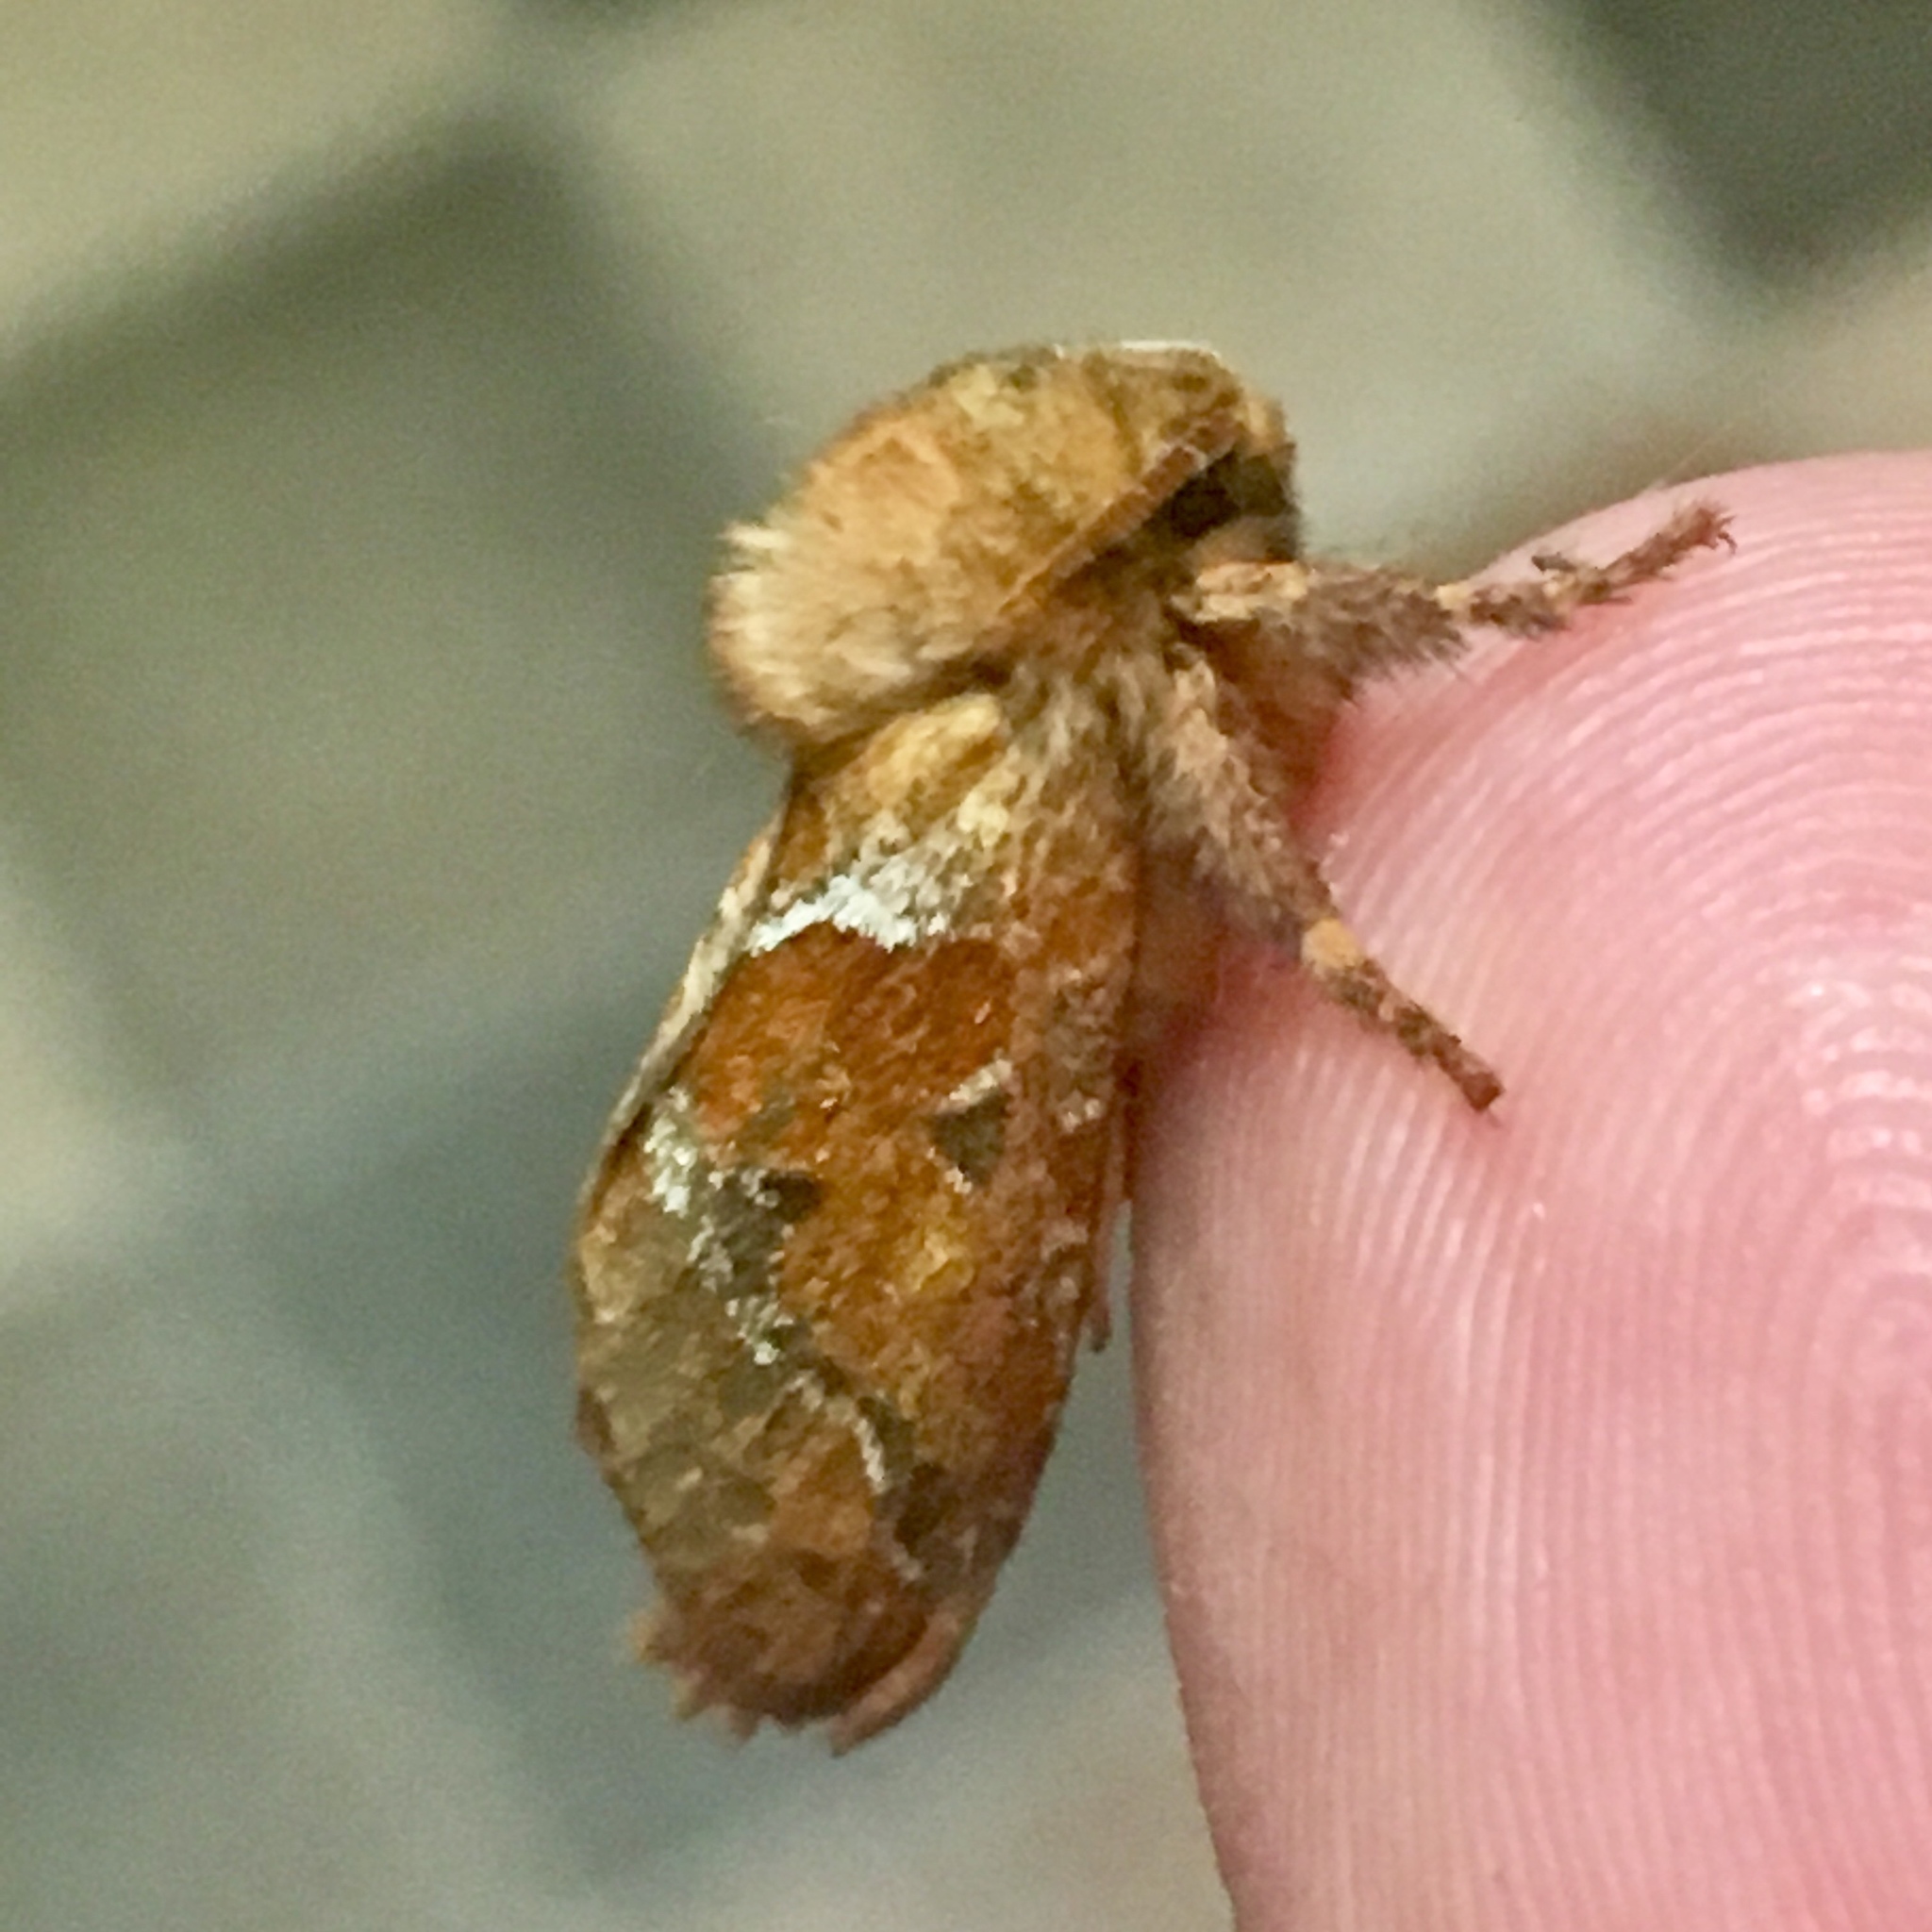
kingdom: Animalia
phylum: Arthropoda
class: Insecta
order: Lepidoptera
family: Hepialidae
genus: Triodia
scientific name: Triodia sylvina
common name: Orange swift
